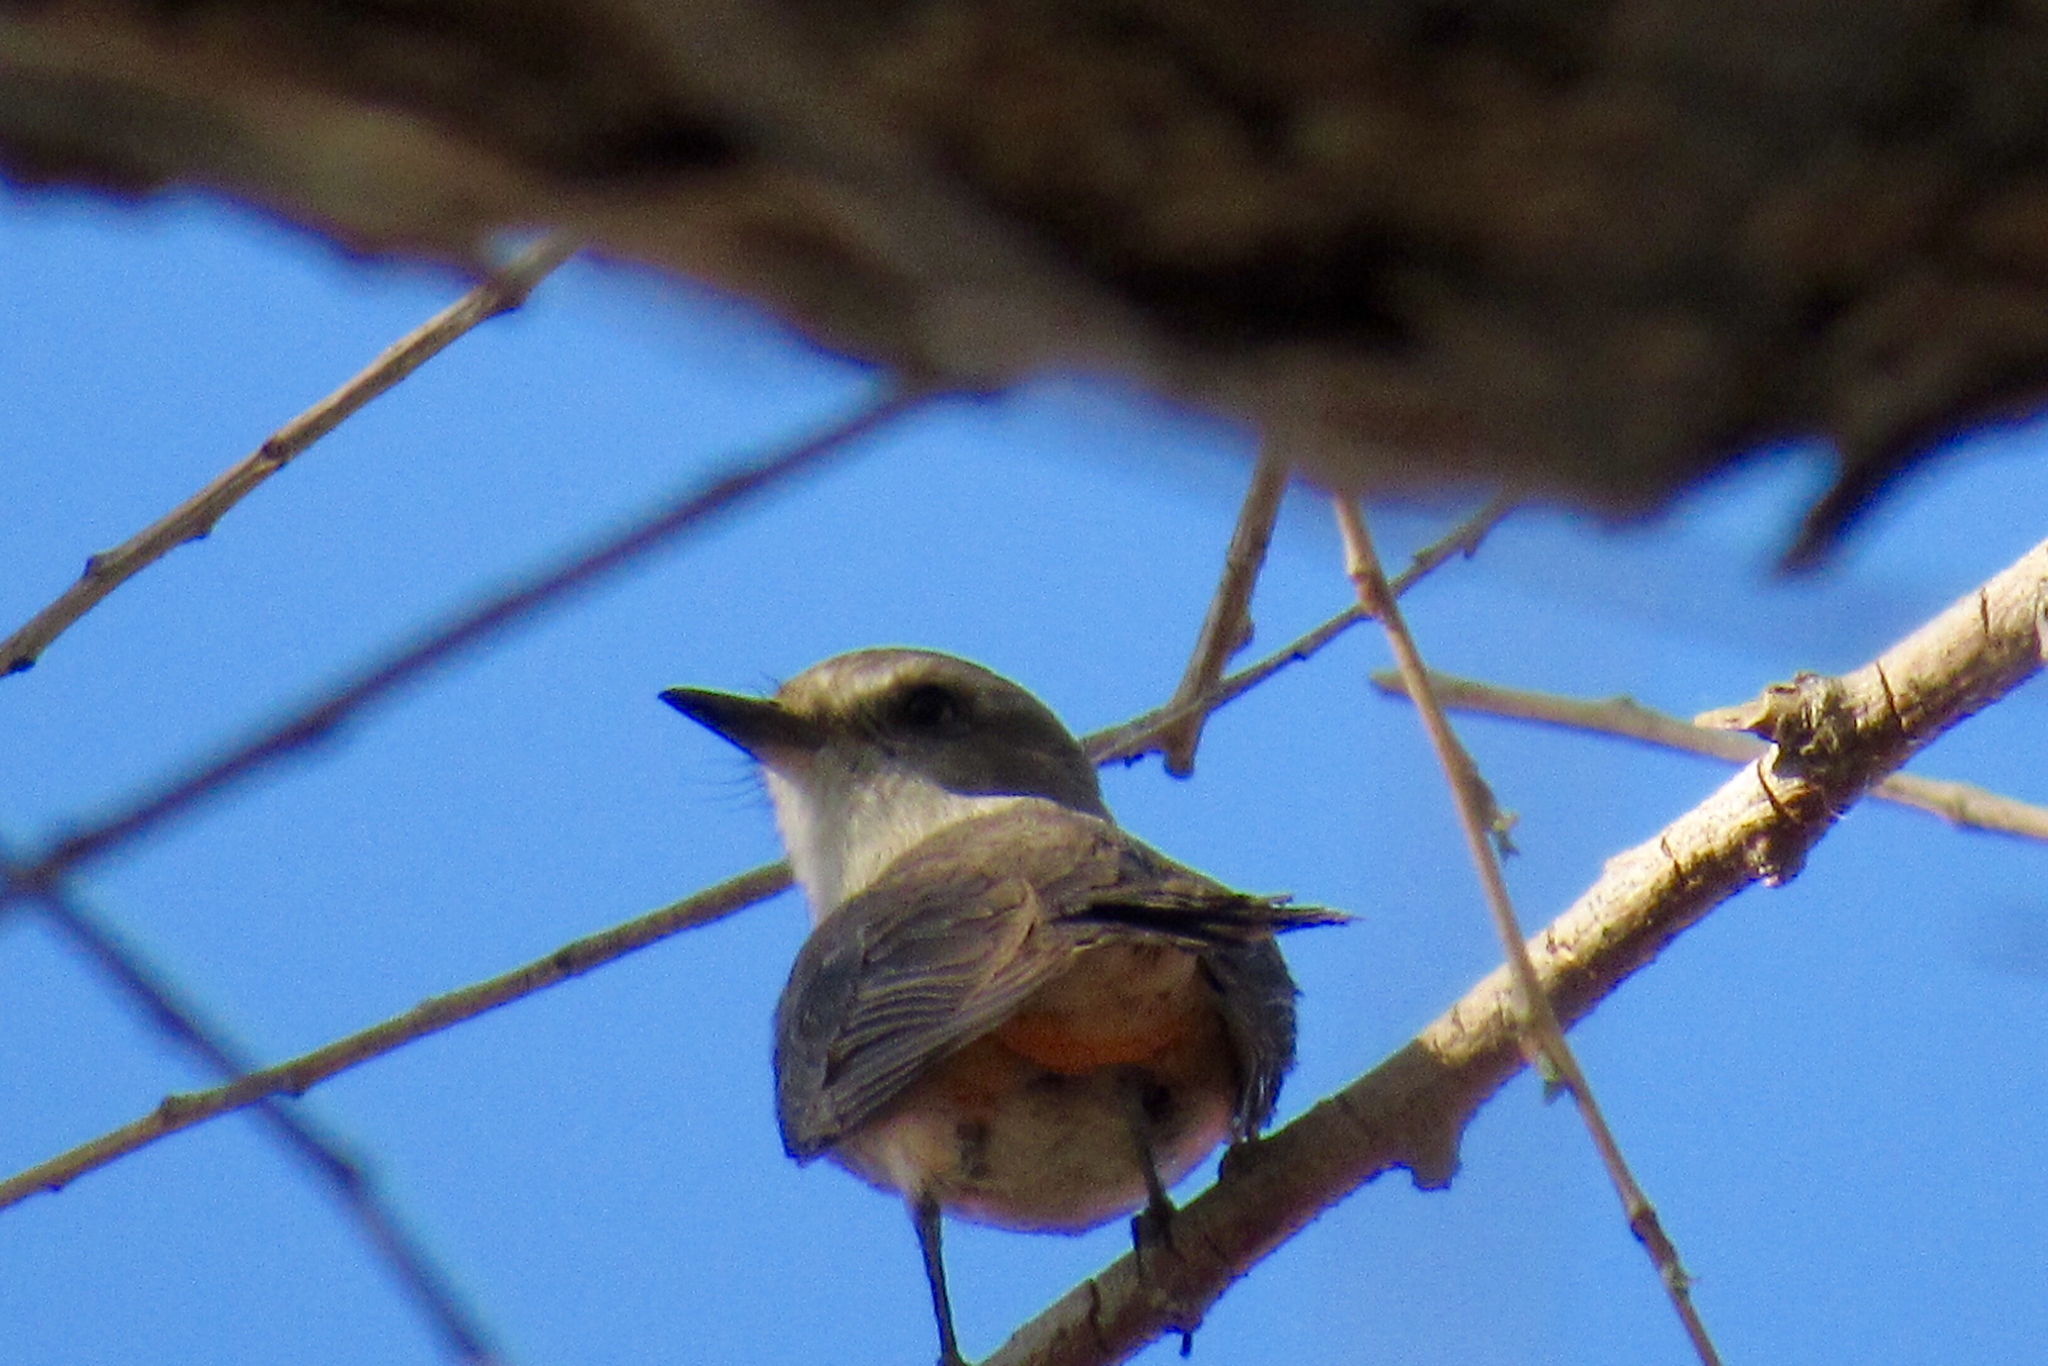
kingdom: Animalia
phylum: Chordata
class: Aves
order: Passeriformes
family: Tyrannidae
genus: Pyrocephalus
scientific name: Pyrocephalus rubinus
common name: Vermilion flycatcher
